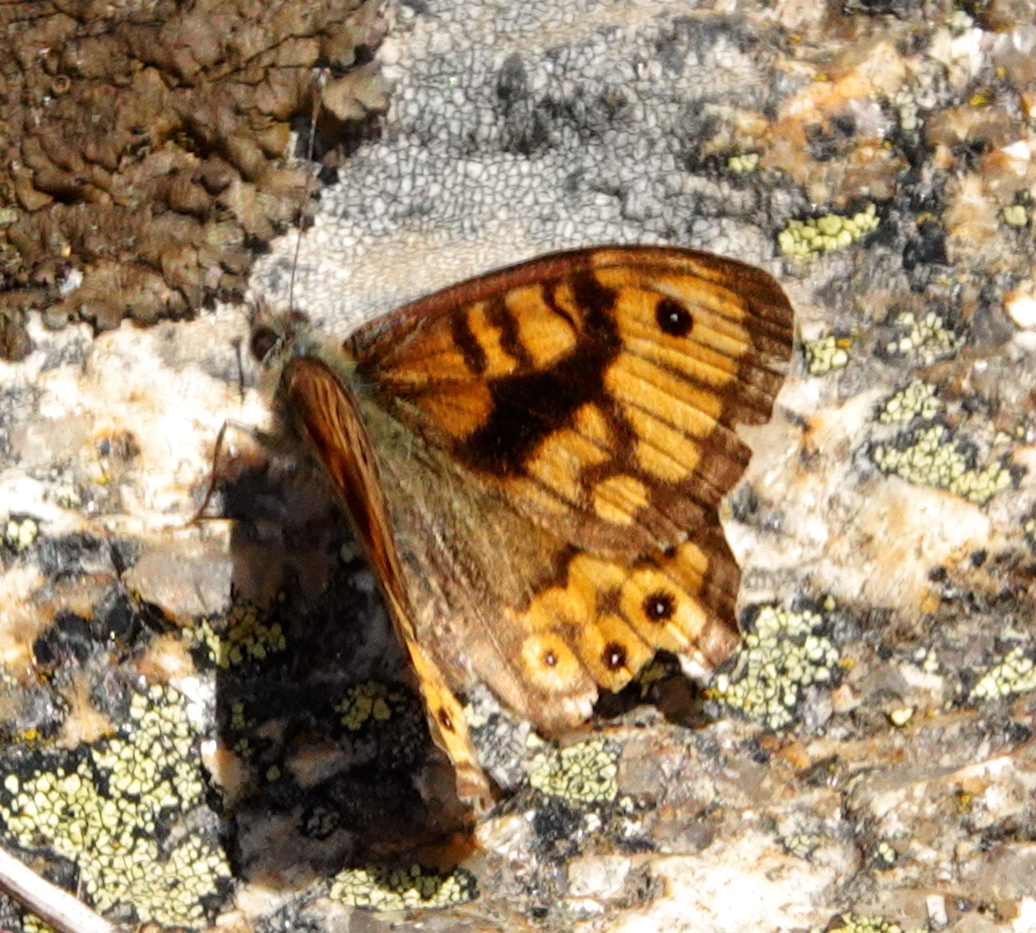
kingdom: Animalia
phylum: Arthropoda
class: Insecta
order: Lepidoptera
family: Nymphalidae
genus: Pararge
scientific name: Pararge Lasiommata megera
